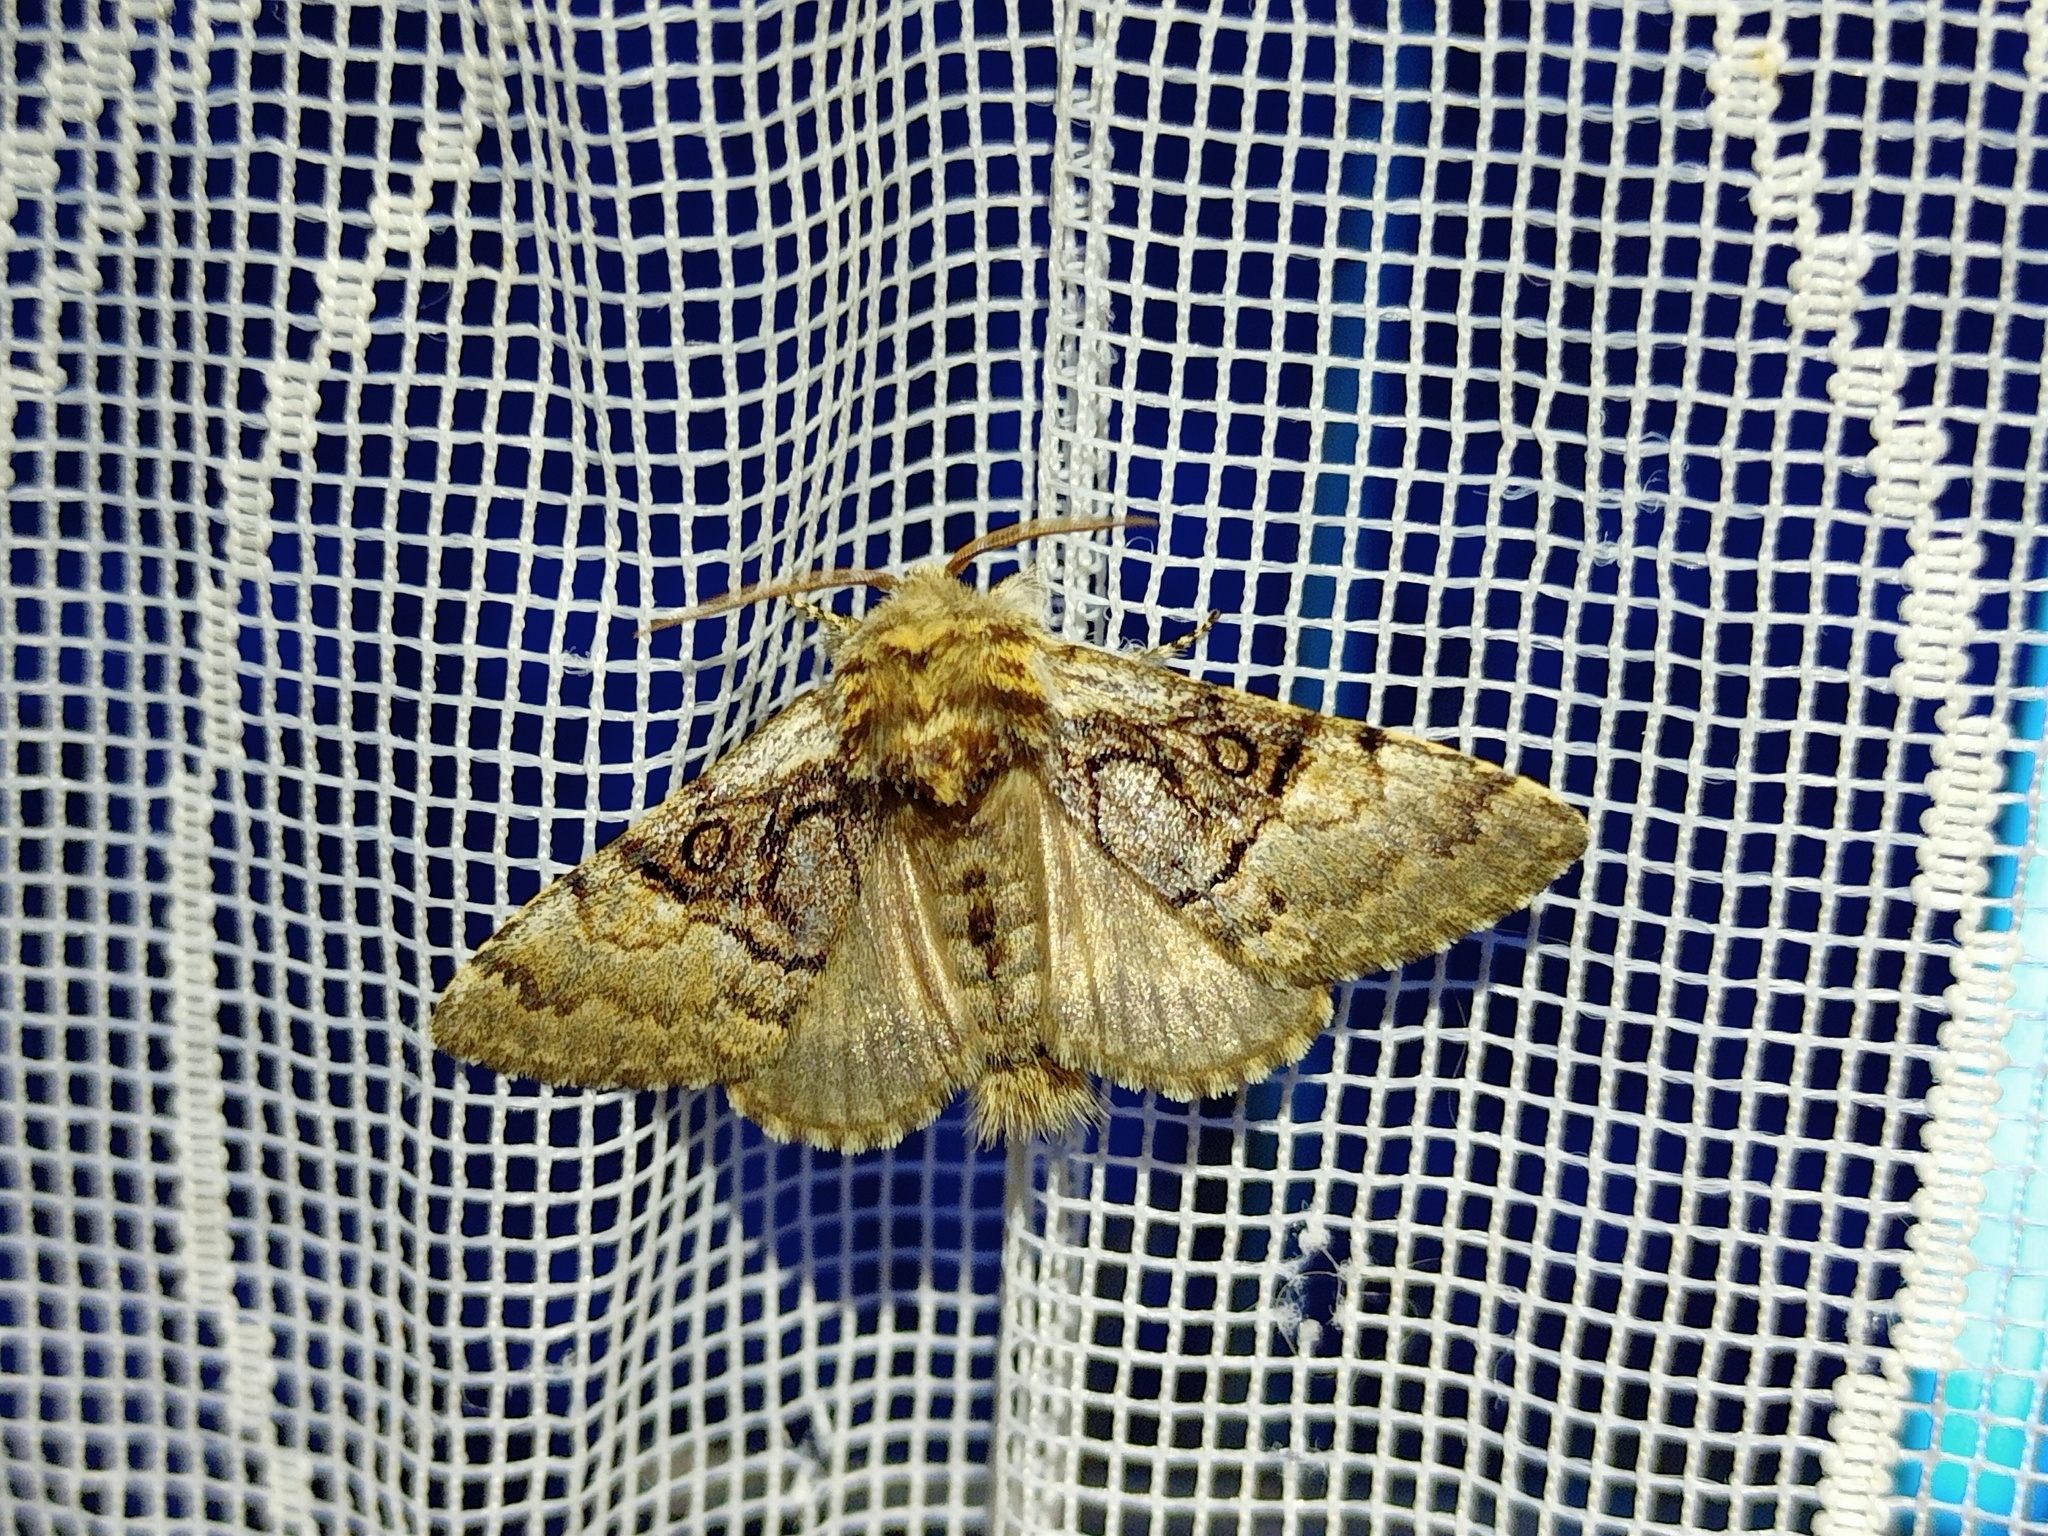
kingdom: Animalia
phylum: Arthropoda
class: Insecta
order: Lepidoptera
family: Noctuidae
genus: Colocasia
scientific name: Colocasia coryli
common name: Nut-tree tussock
